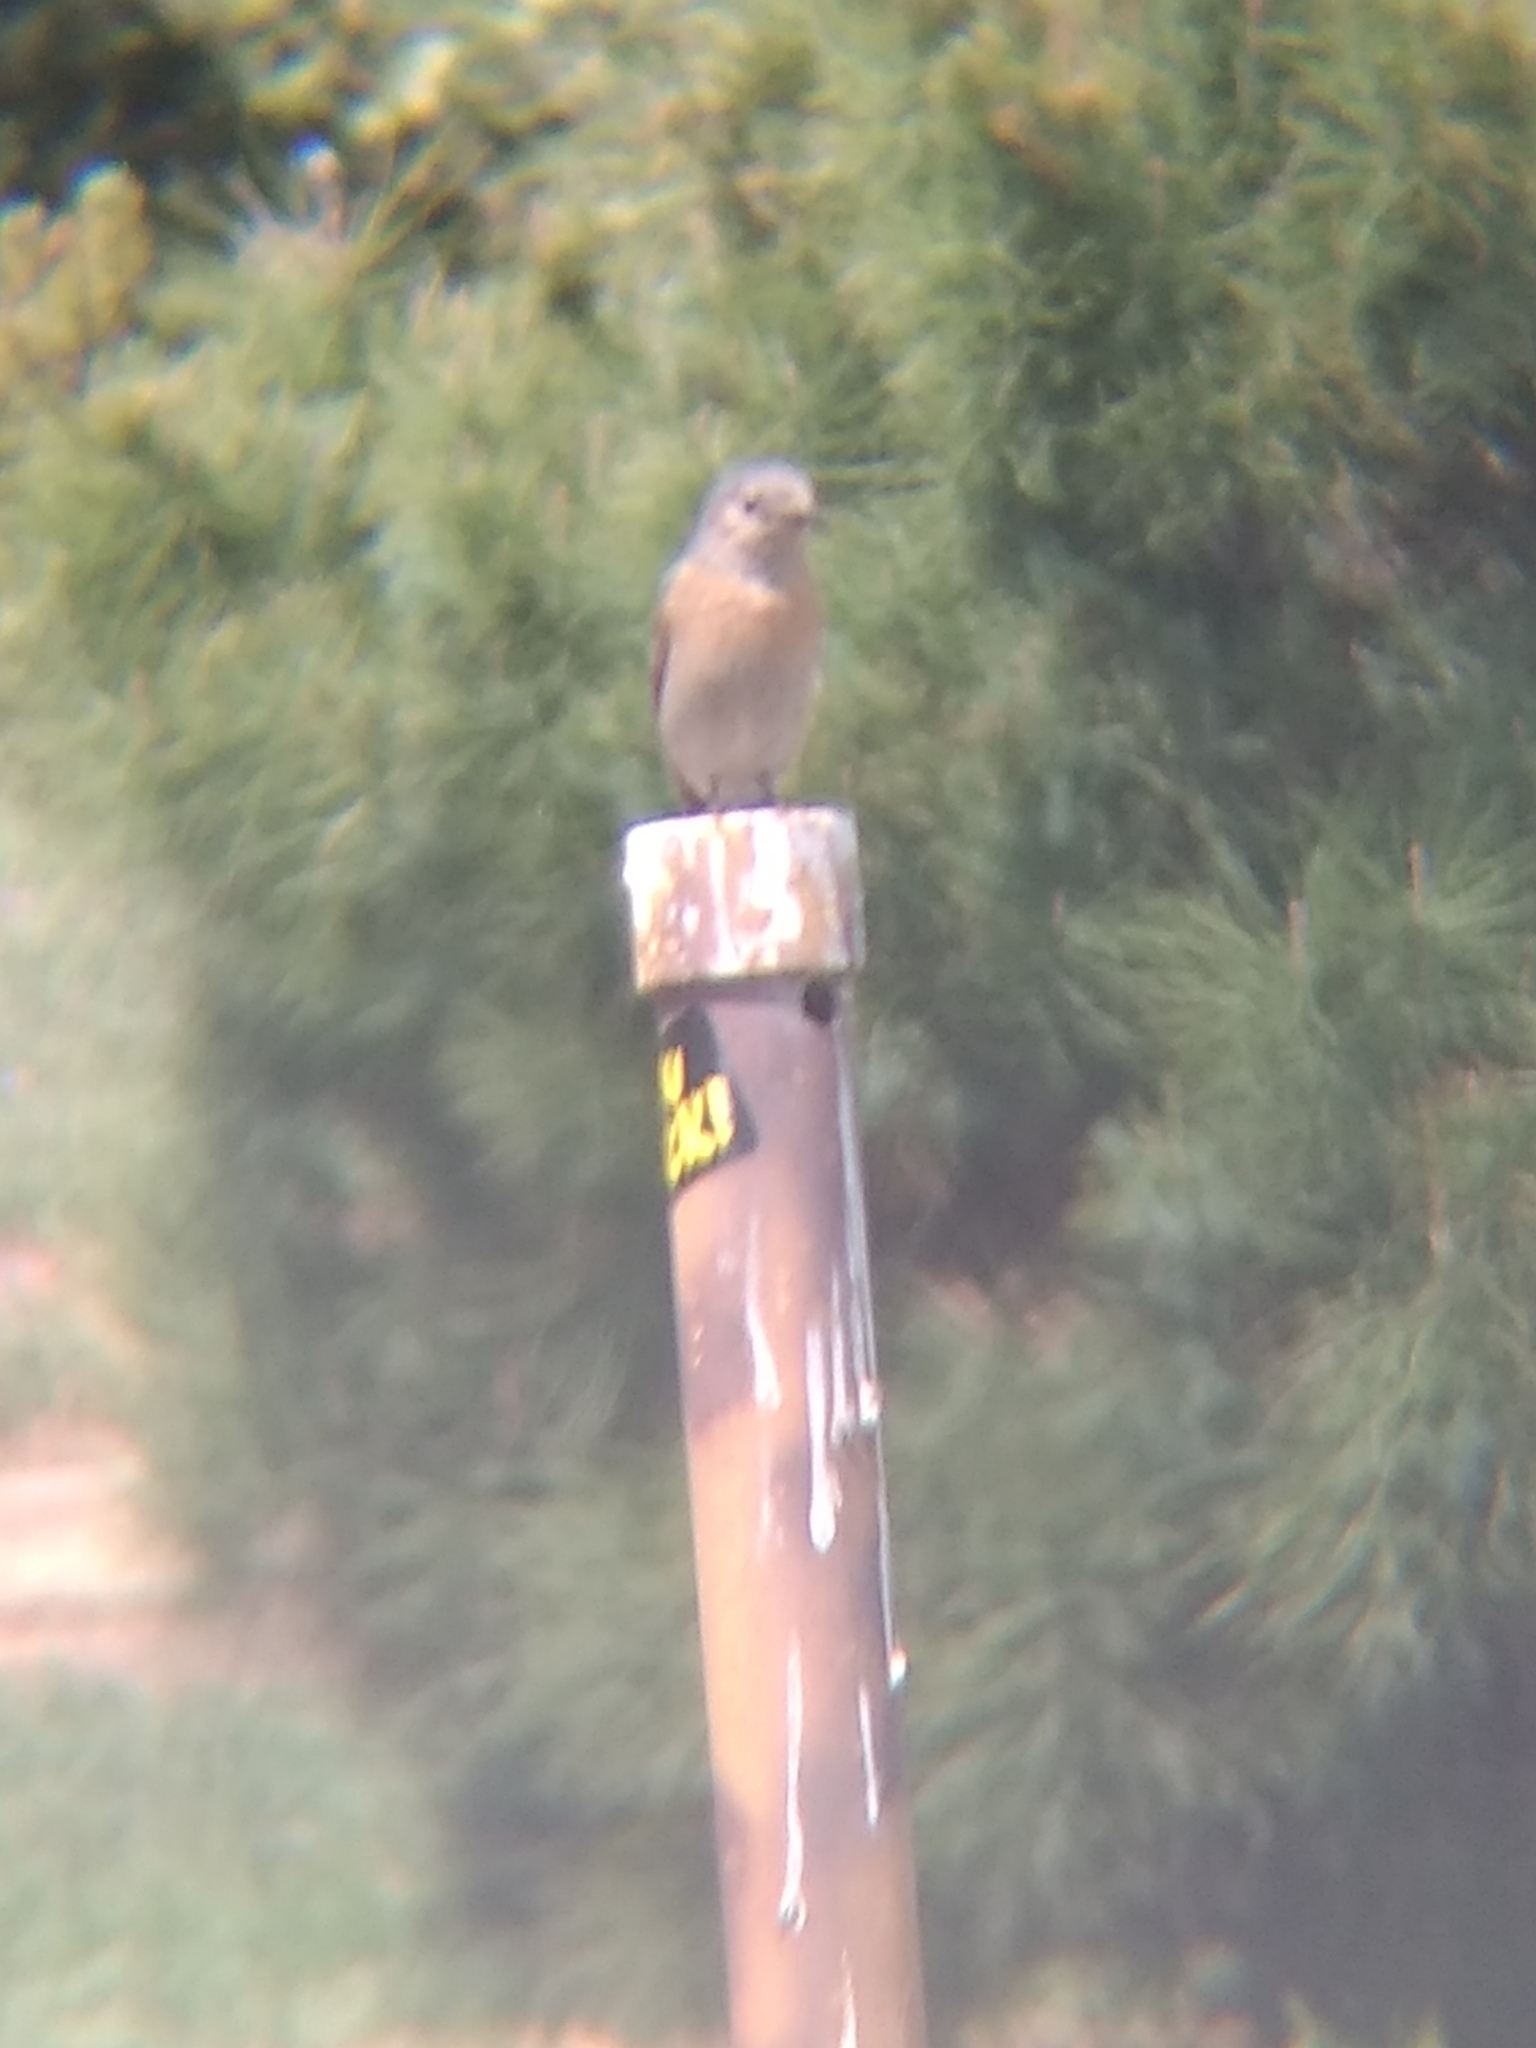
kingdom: Animalia
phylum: Chordata
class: Aves
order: Passeriformes
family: Turdidae
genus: Sialia
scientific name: Sialia mexicana
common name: Western bluebird
